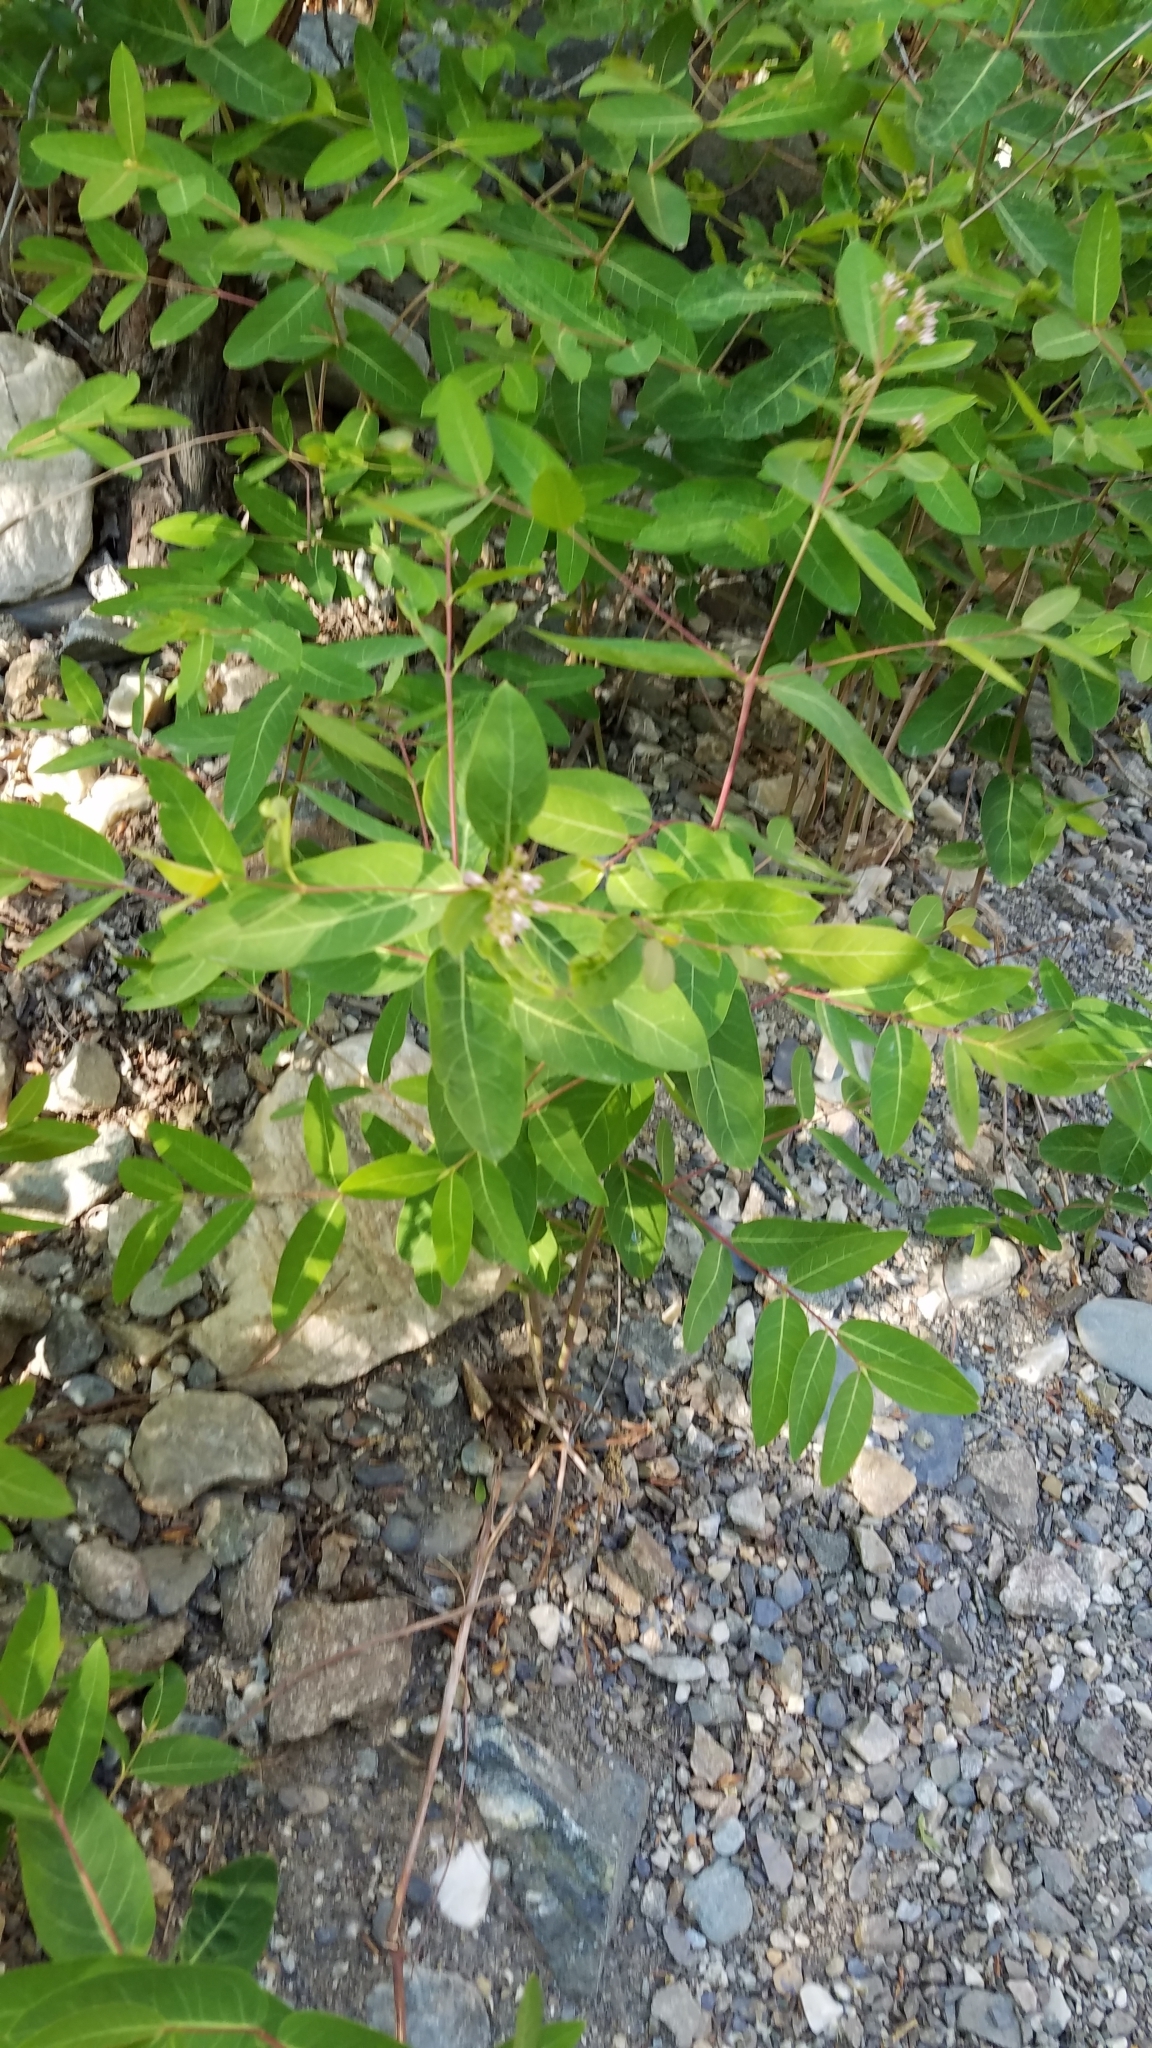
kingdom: Plantae
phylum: Tracheophyta
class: Magnoliopsida
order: Gentianales
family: Apocynaceae
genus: Apocynum
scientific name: Apocynum cannabinum
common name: Hemp dogbane
